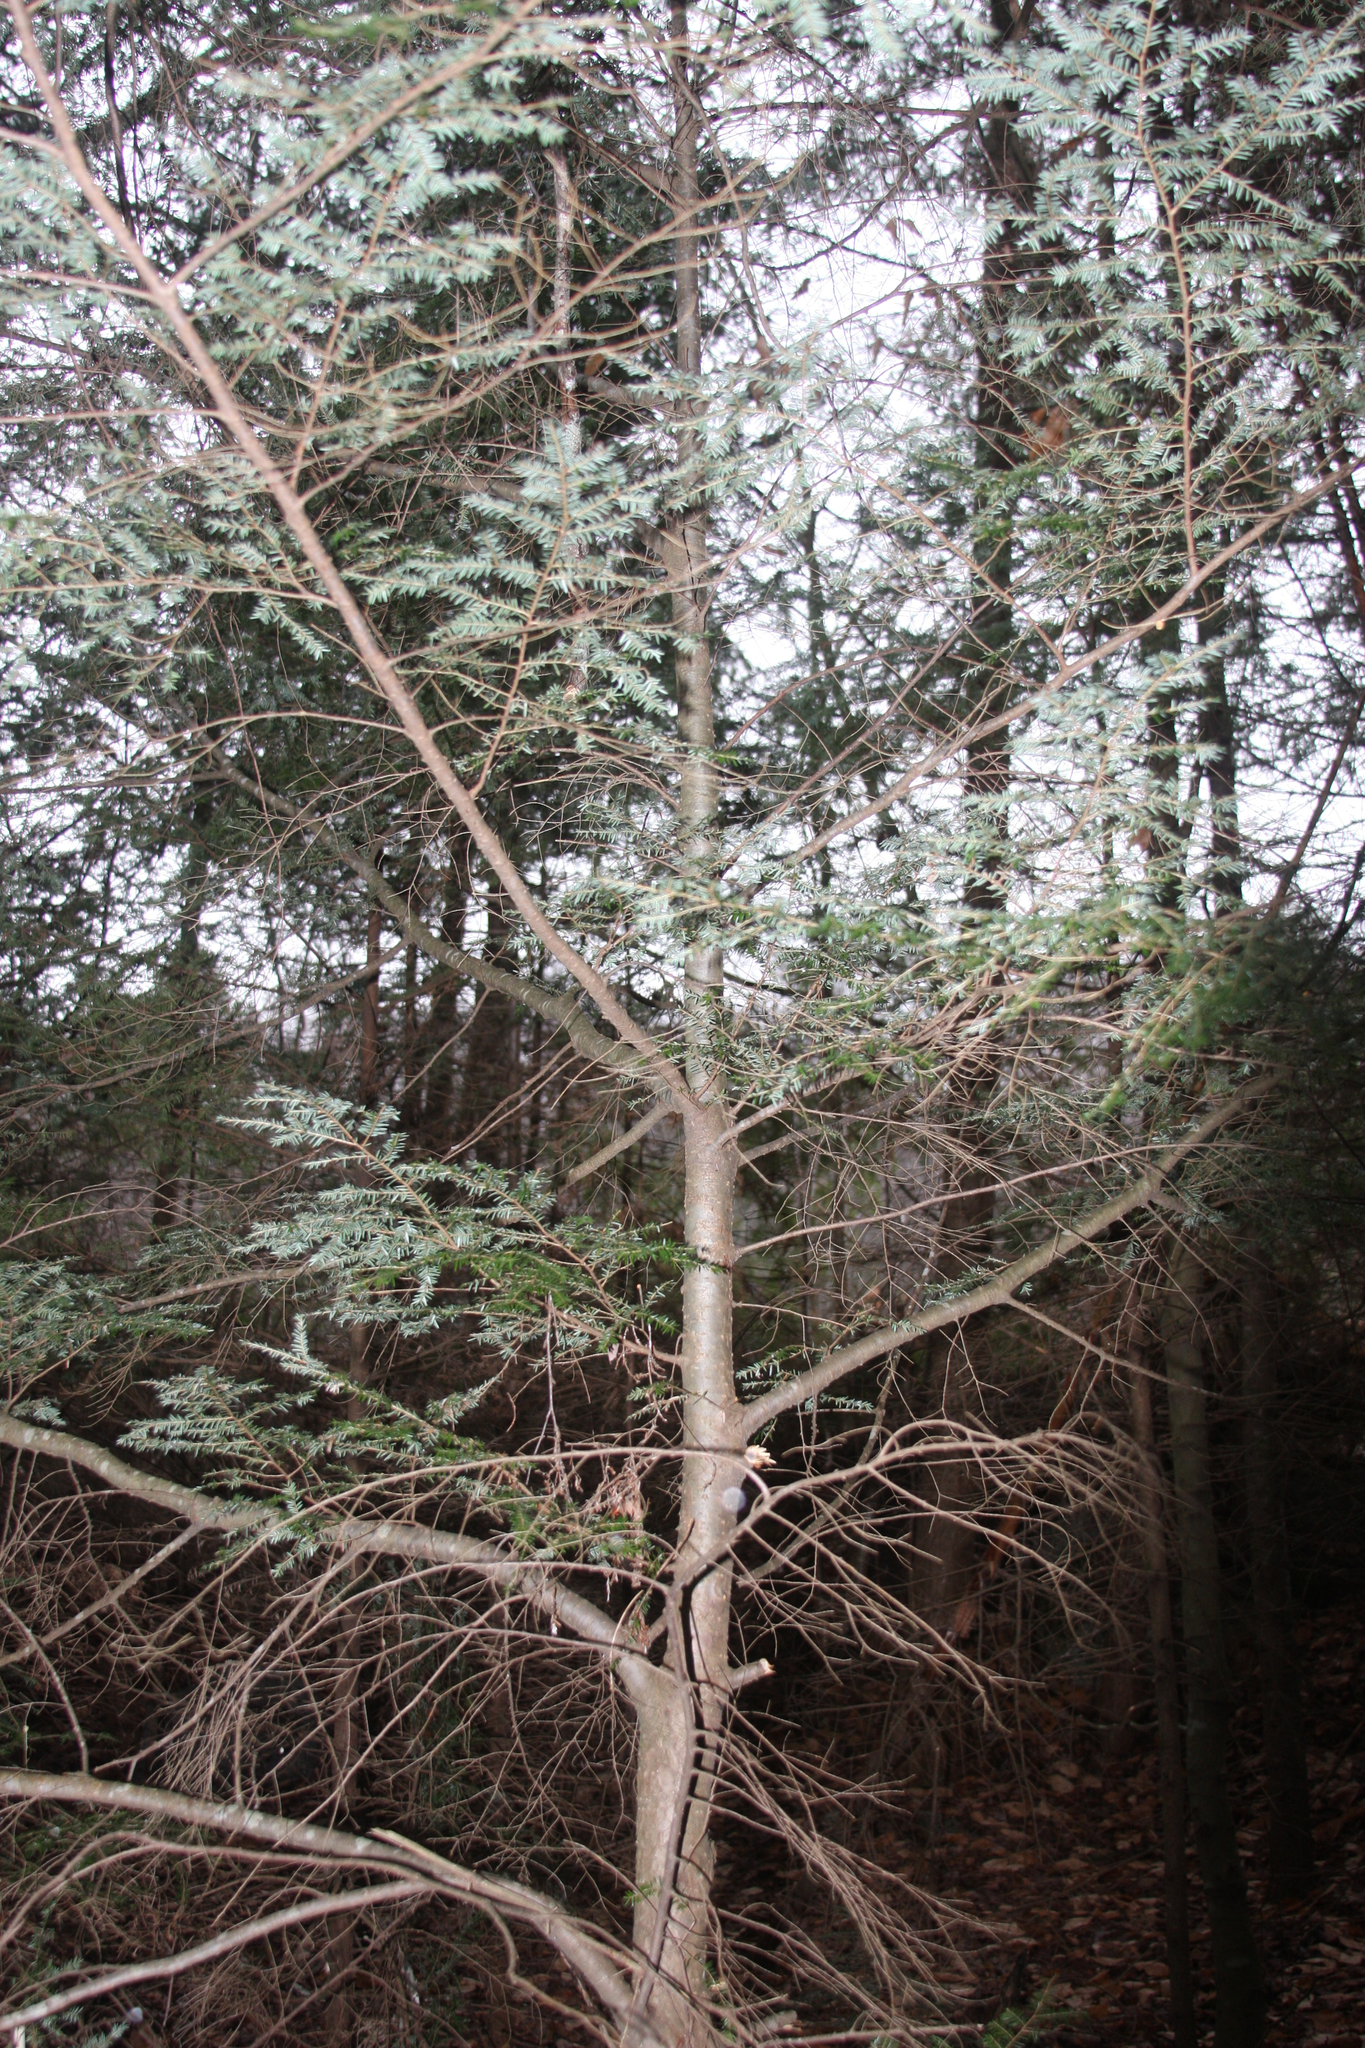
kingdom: Plantae
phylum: Tracheophyta
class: Pinopsida
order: Pinales
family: Pinaceae
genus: Tsuga
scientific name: Tsuga canadensis
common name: Eastern hemlock
